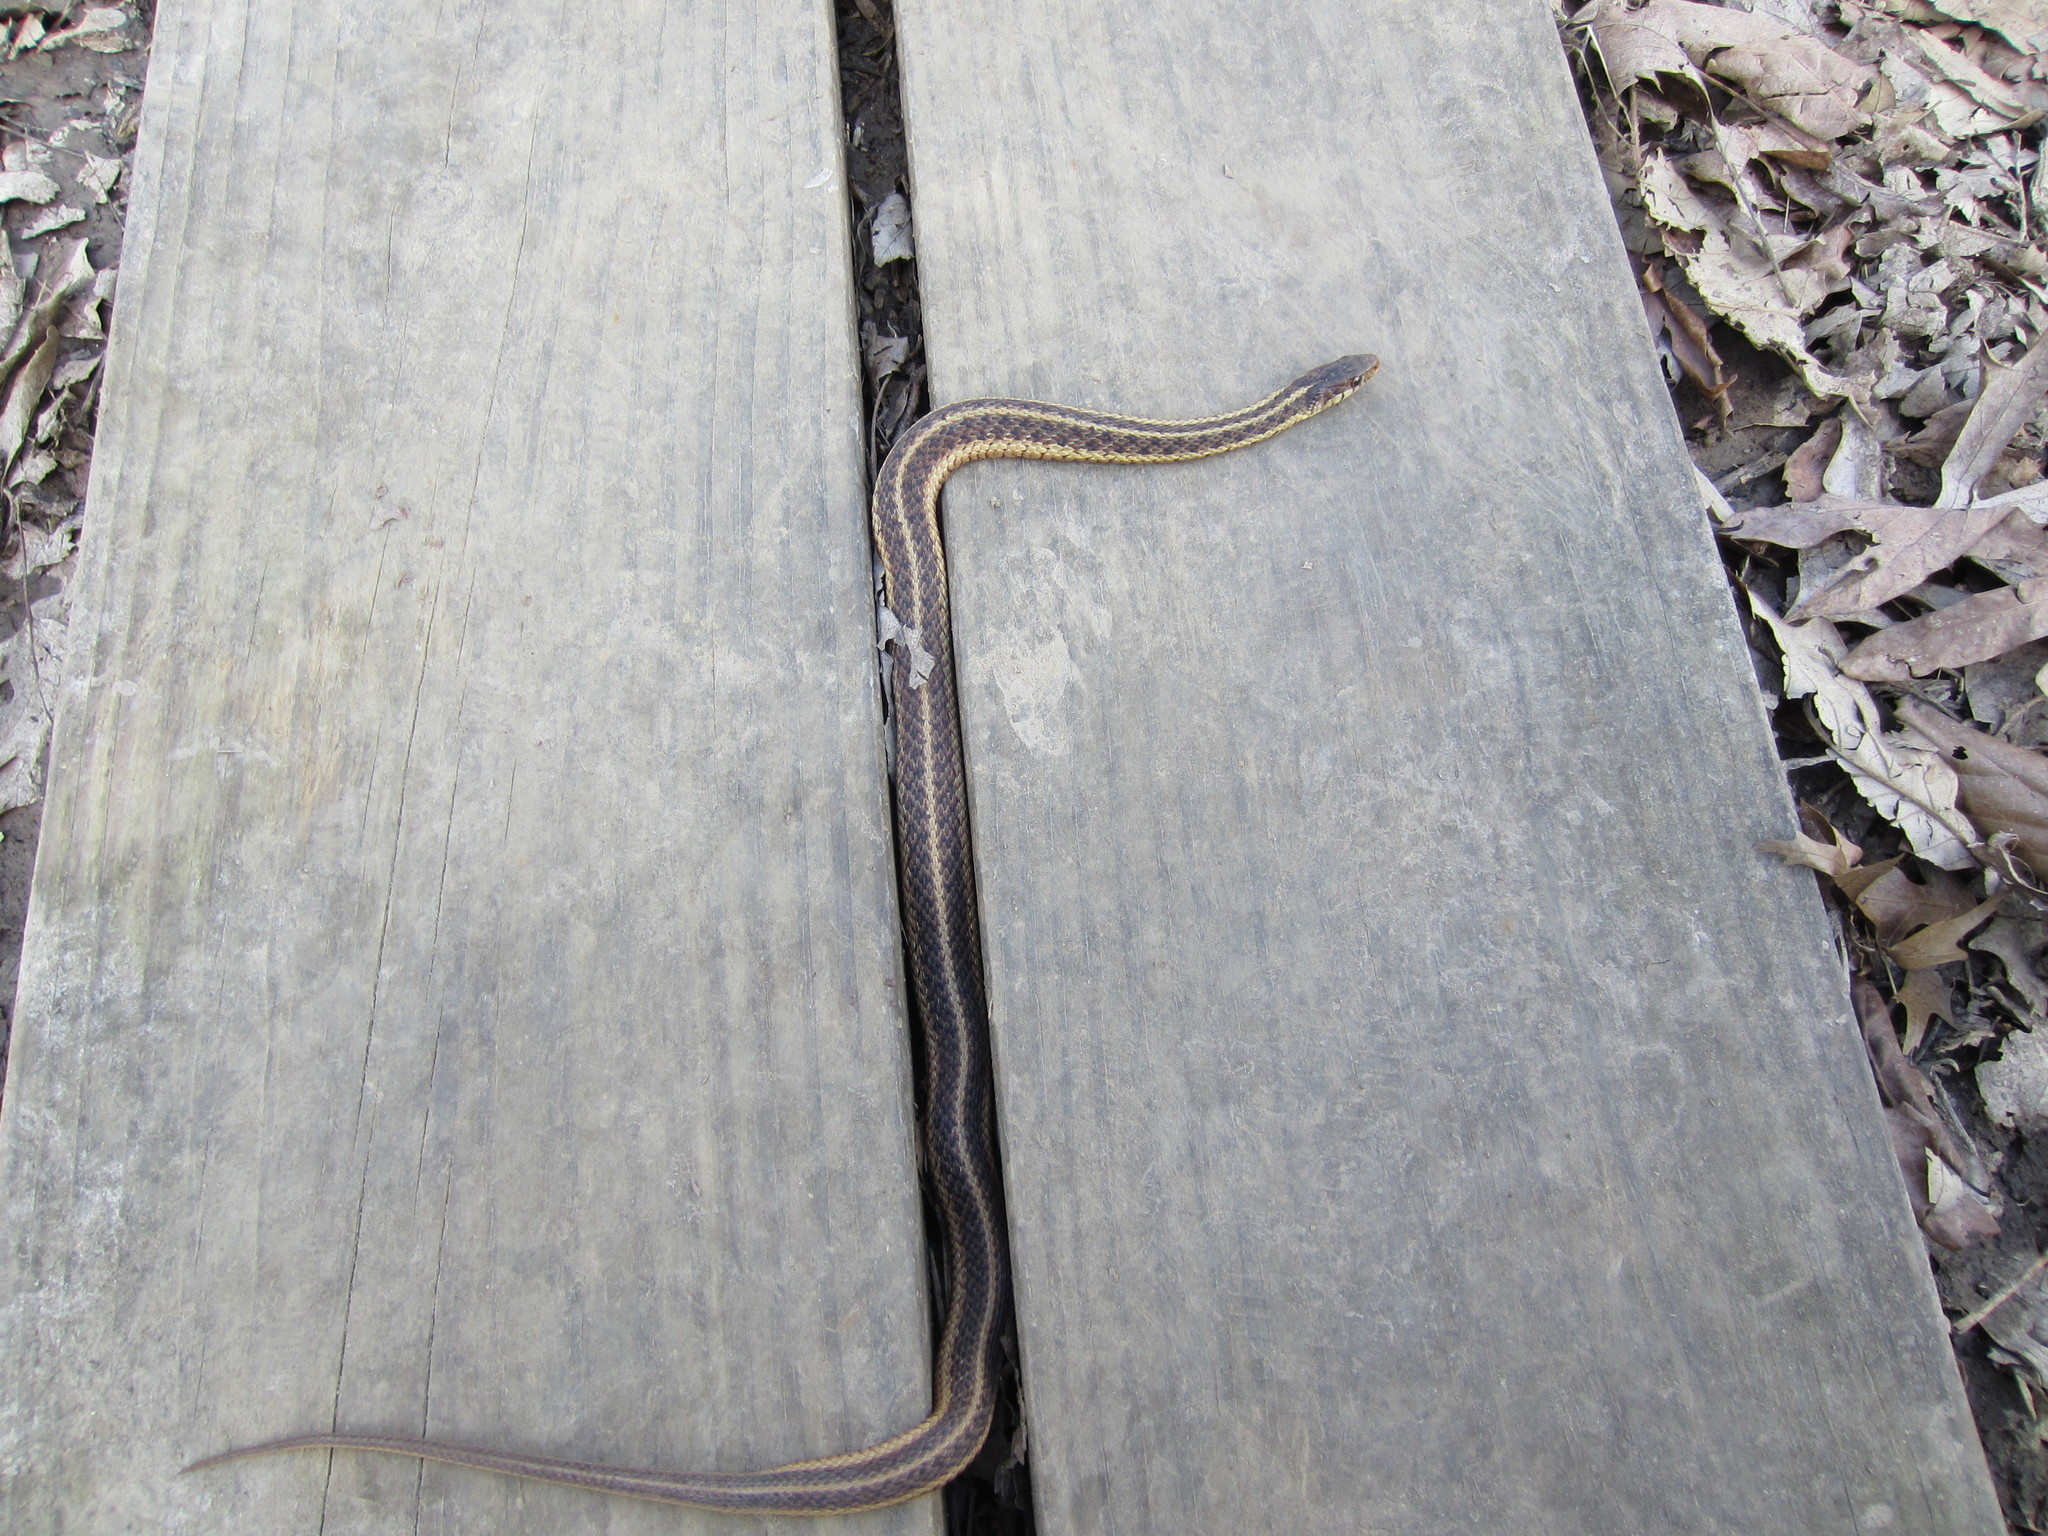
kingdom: Animalia
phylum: Chordata
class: Squamata
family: Colubridae
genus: Thamnophis
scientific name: Thamnophis sirtalis
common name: Common garter snake
